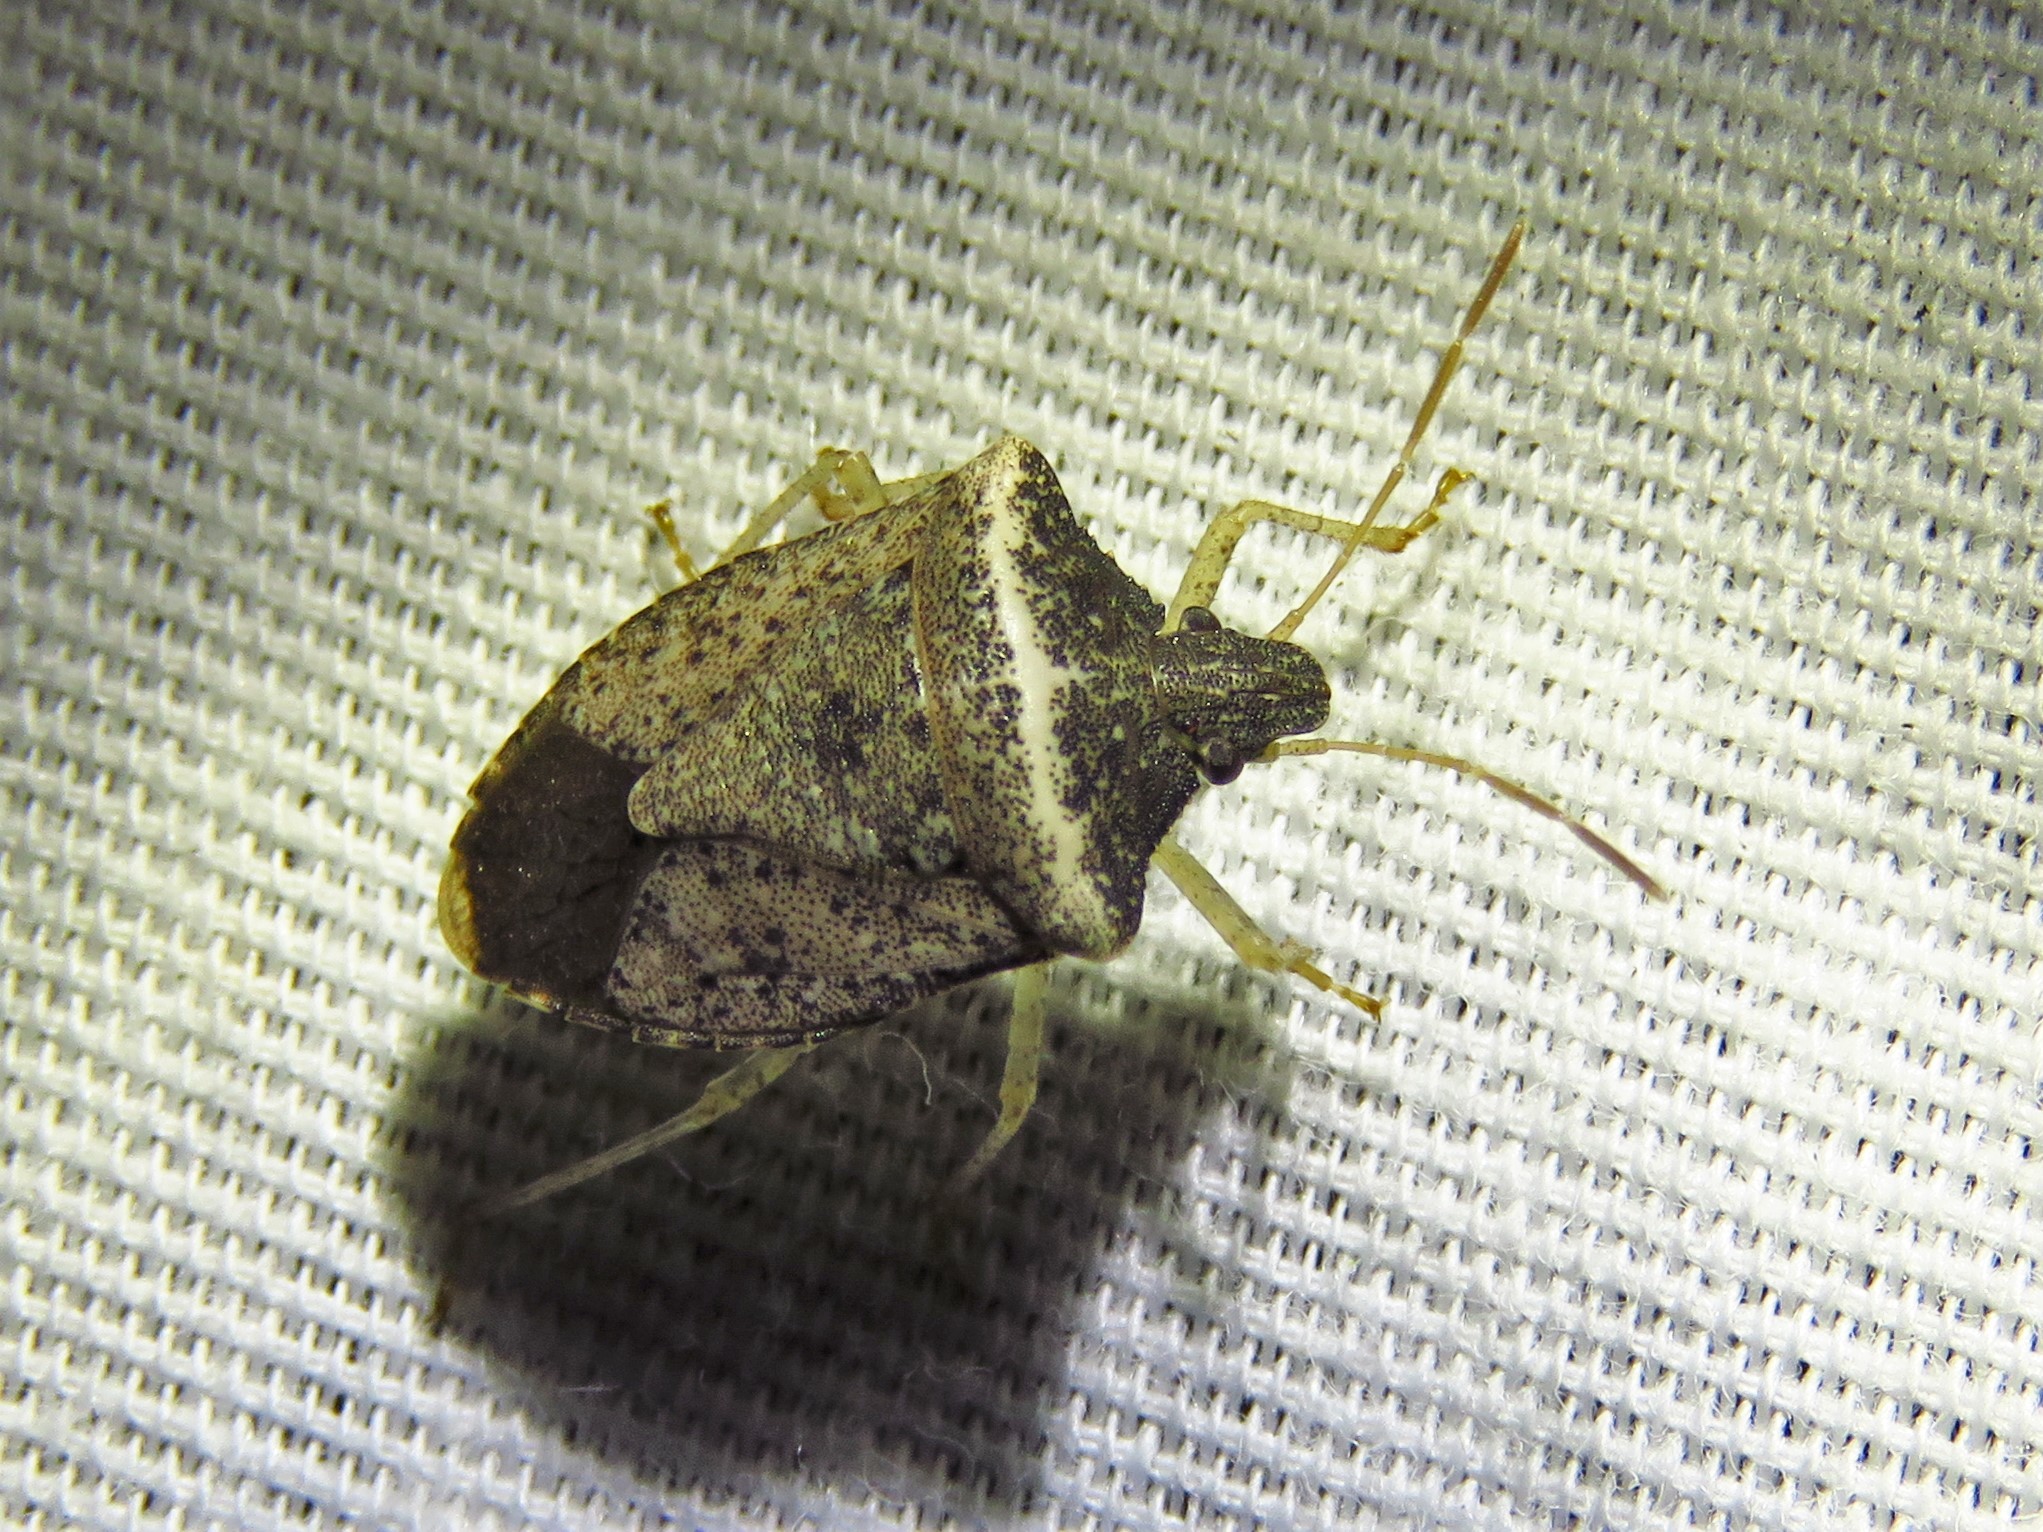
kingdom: Animalia
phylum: Arthropoda
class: Insecta
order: Hemiptera
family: Pentatomidae
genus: Euschistus
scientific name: Euschistus obscurus
